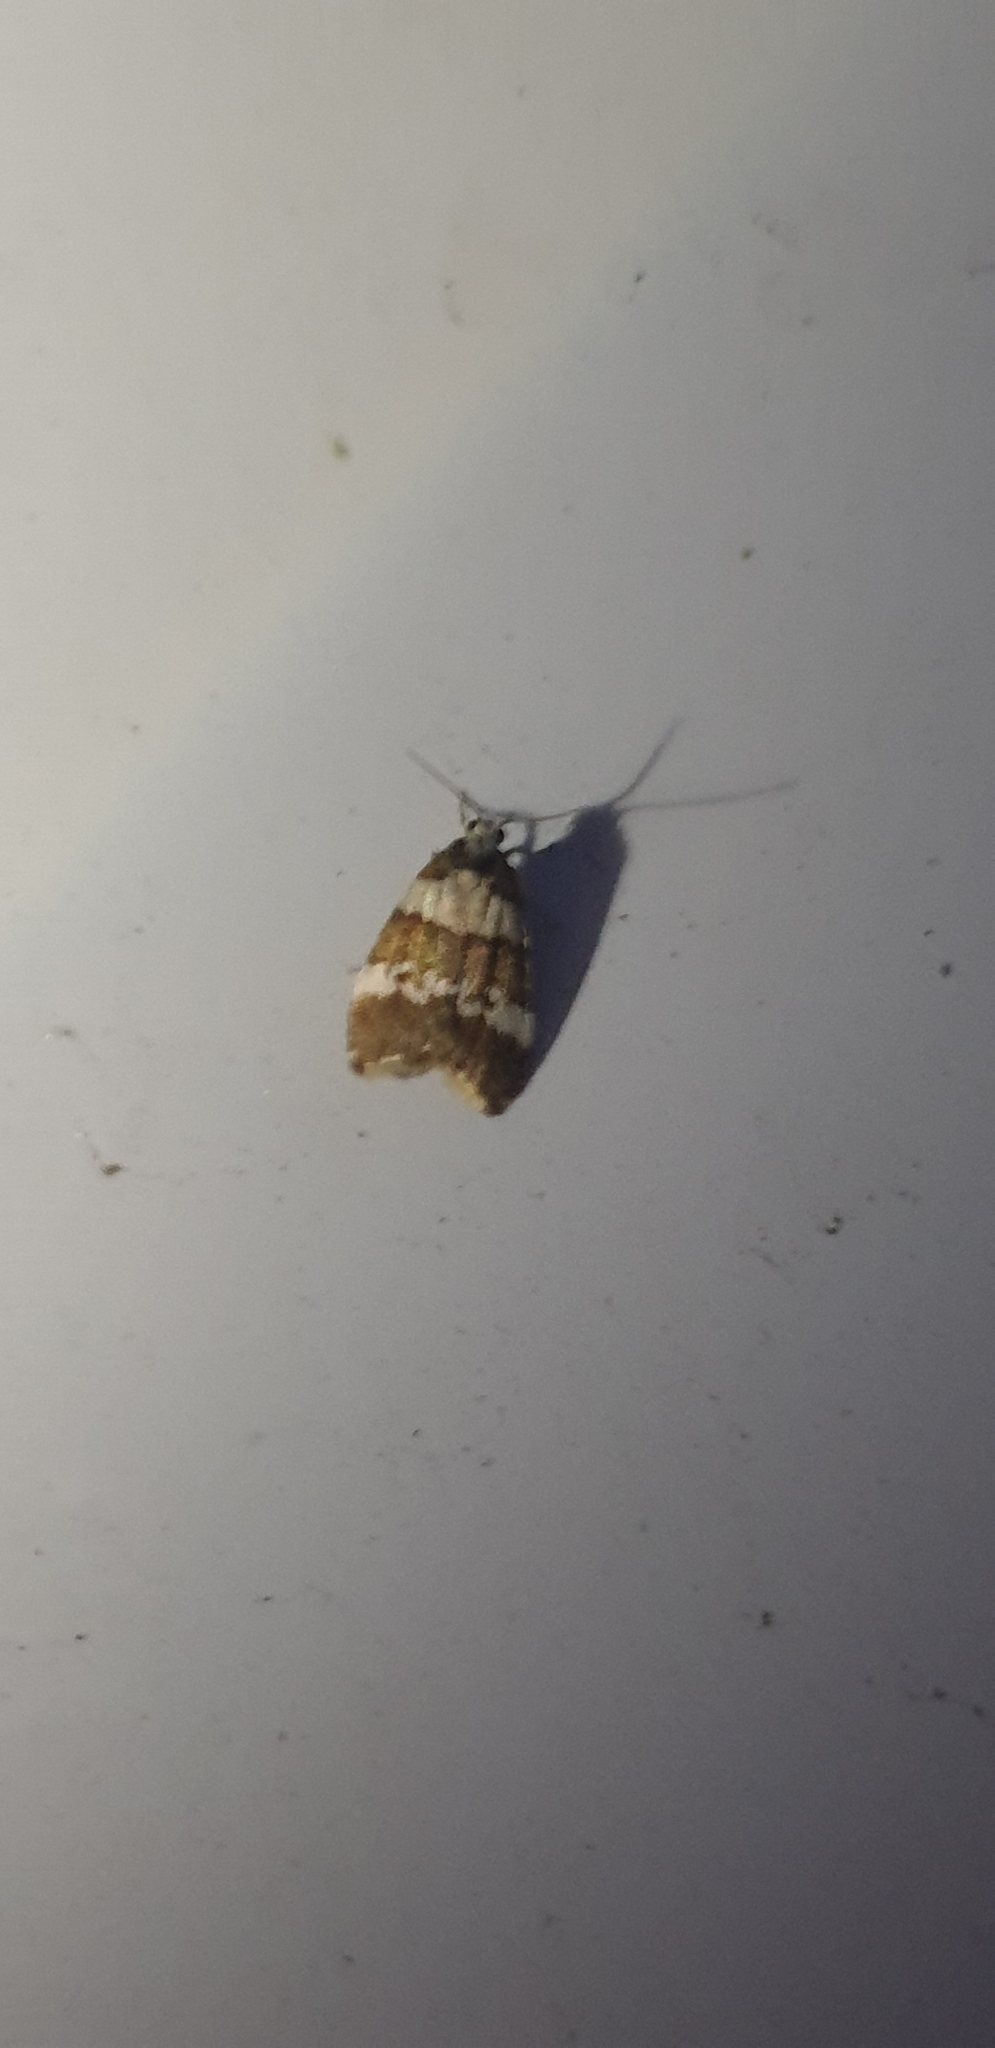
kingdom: Animalia
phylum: Arthropoda
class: Insecta
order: Lepidoptera
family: Erebidae
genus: Halone
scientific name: Halone sejuncta
